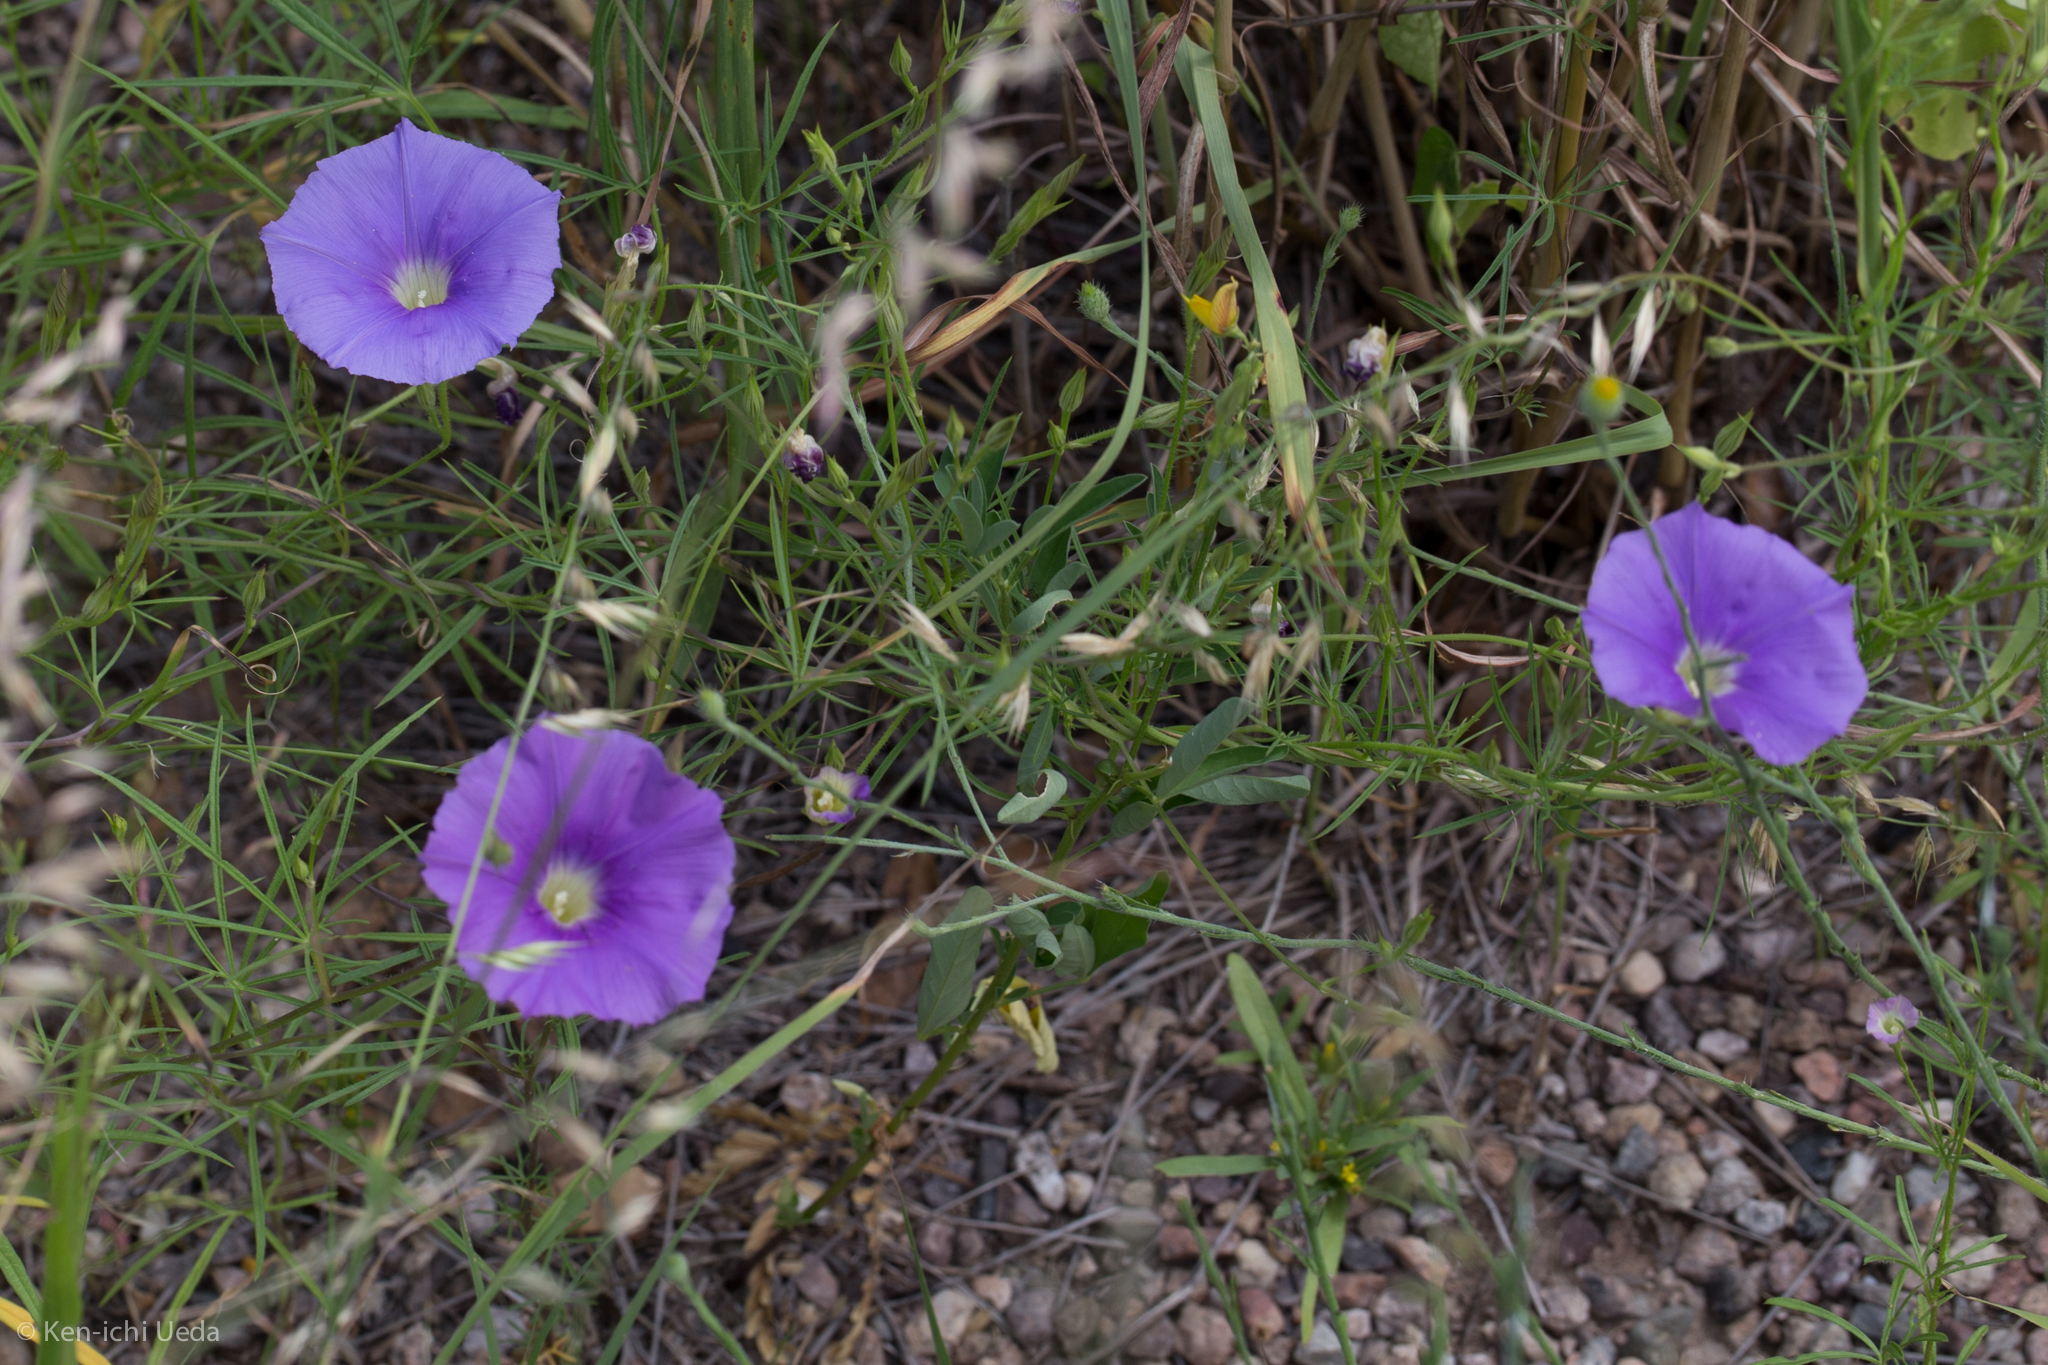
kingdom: Plantae
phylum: Tracheophyta
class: Magnoliopsida
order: Solanales
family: Convolvulaceae
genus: Ipomoea
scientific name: Ipomoea ternifolia
